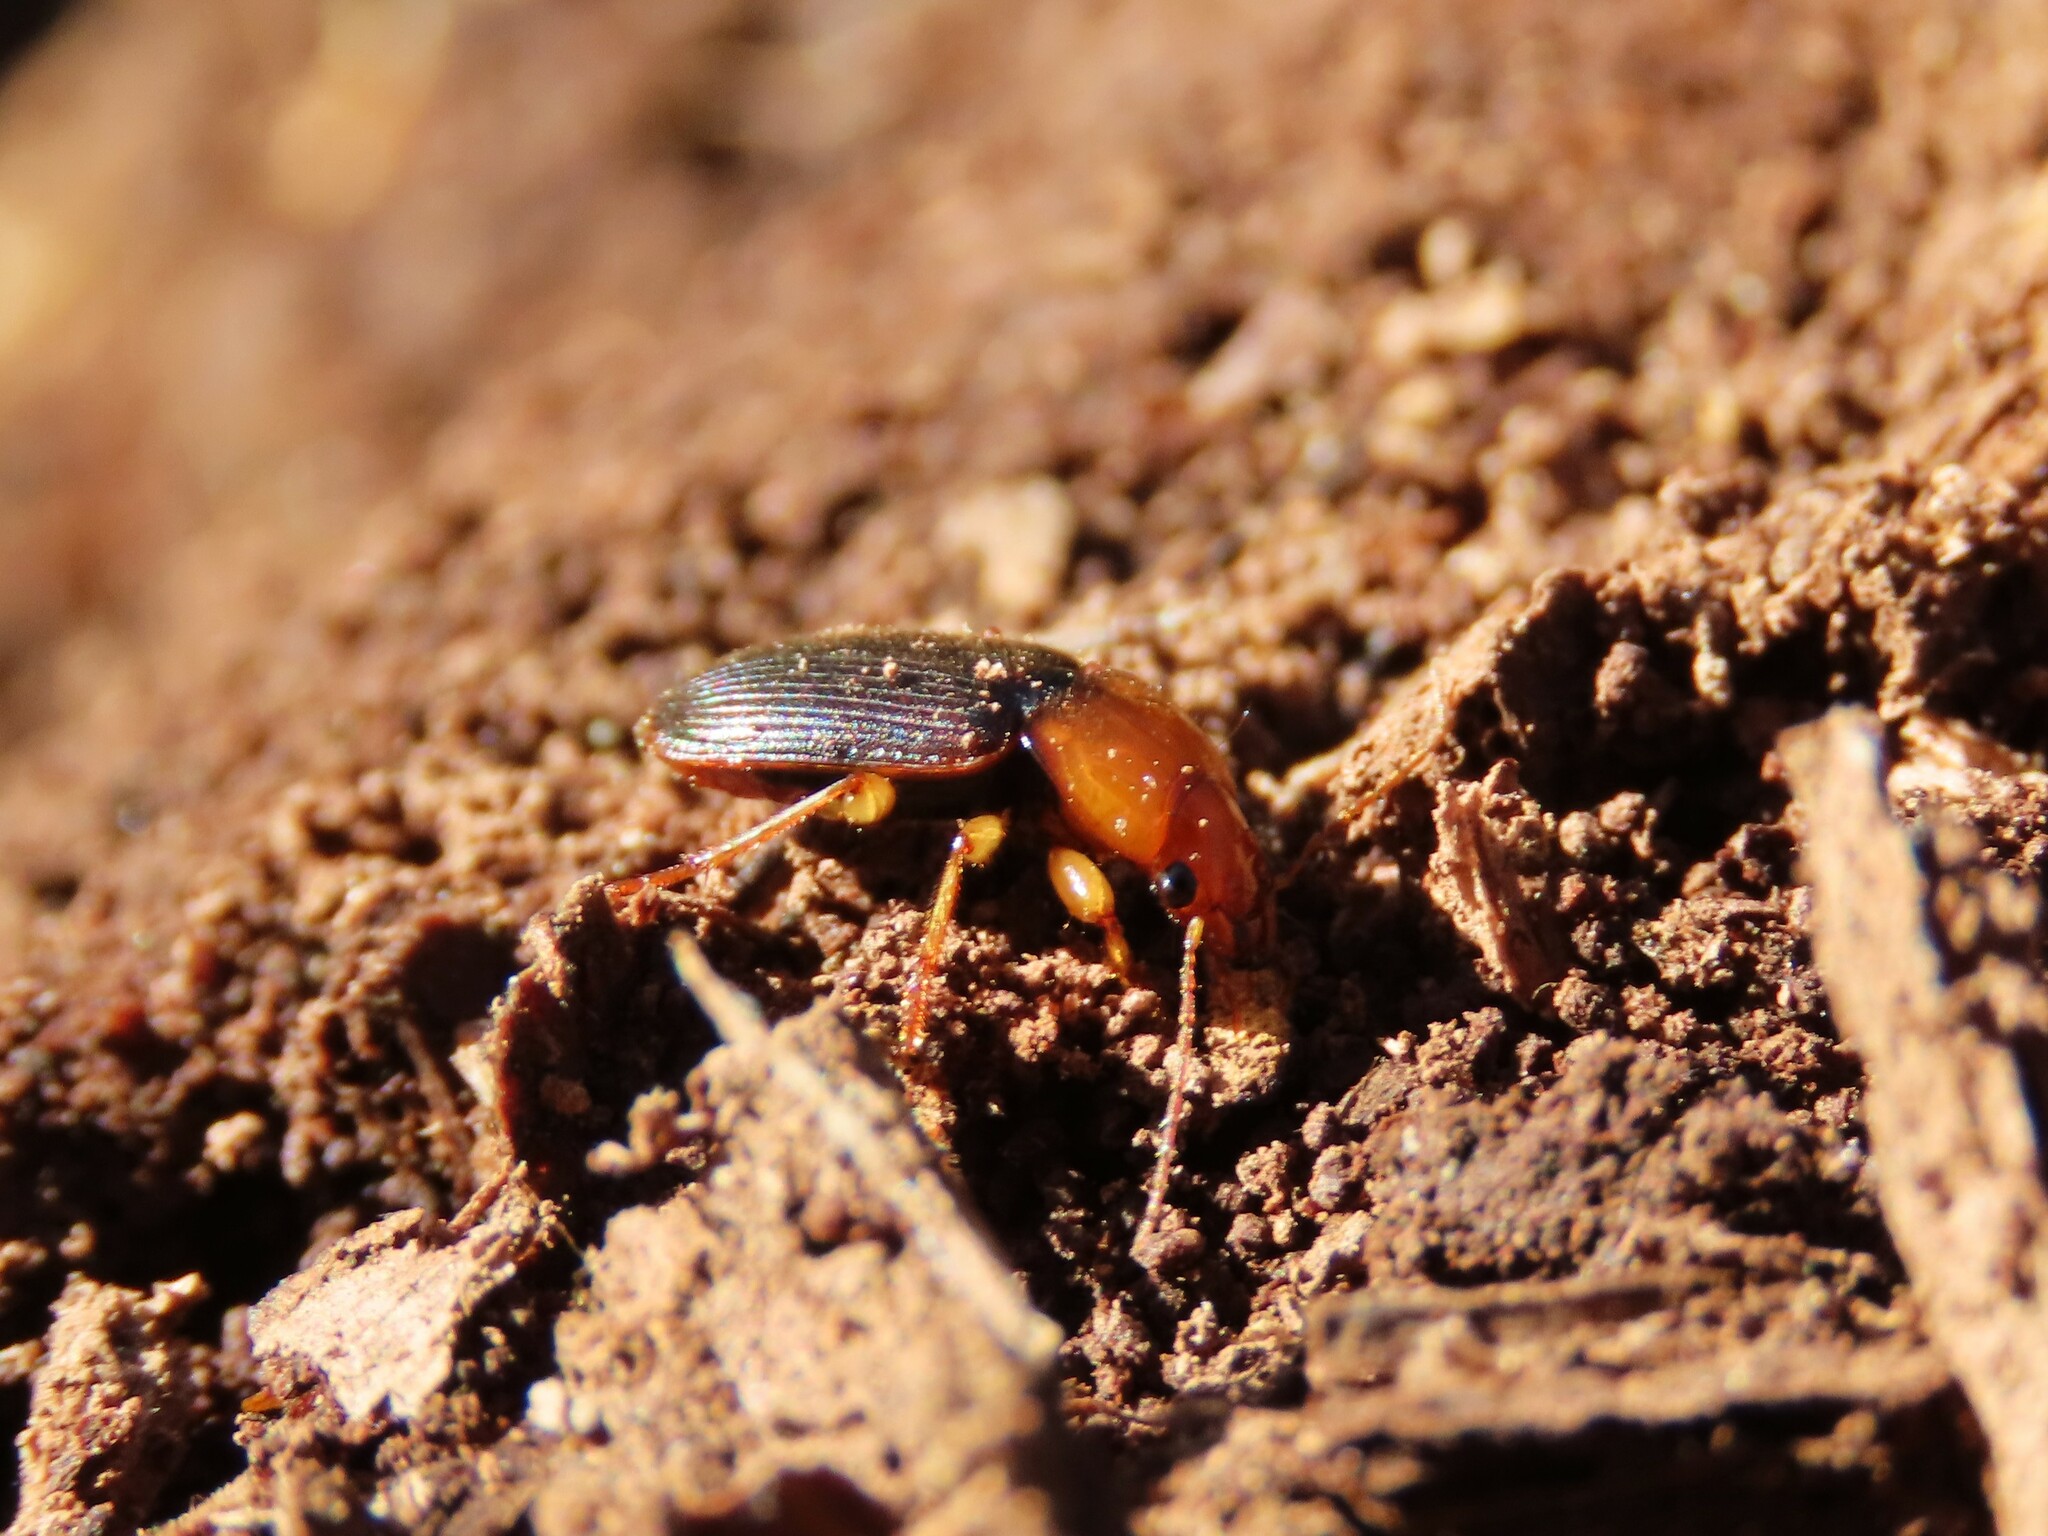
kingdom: Animalia
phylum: Arthropoda
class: Insecta
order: Coleoptera
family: Carabidae
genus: Amphasia
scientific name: Amphasia interstitialis
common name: Red-headed ground beetle
